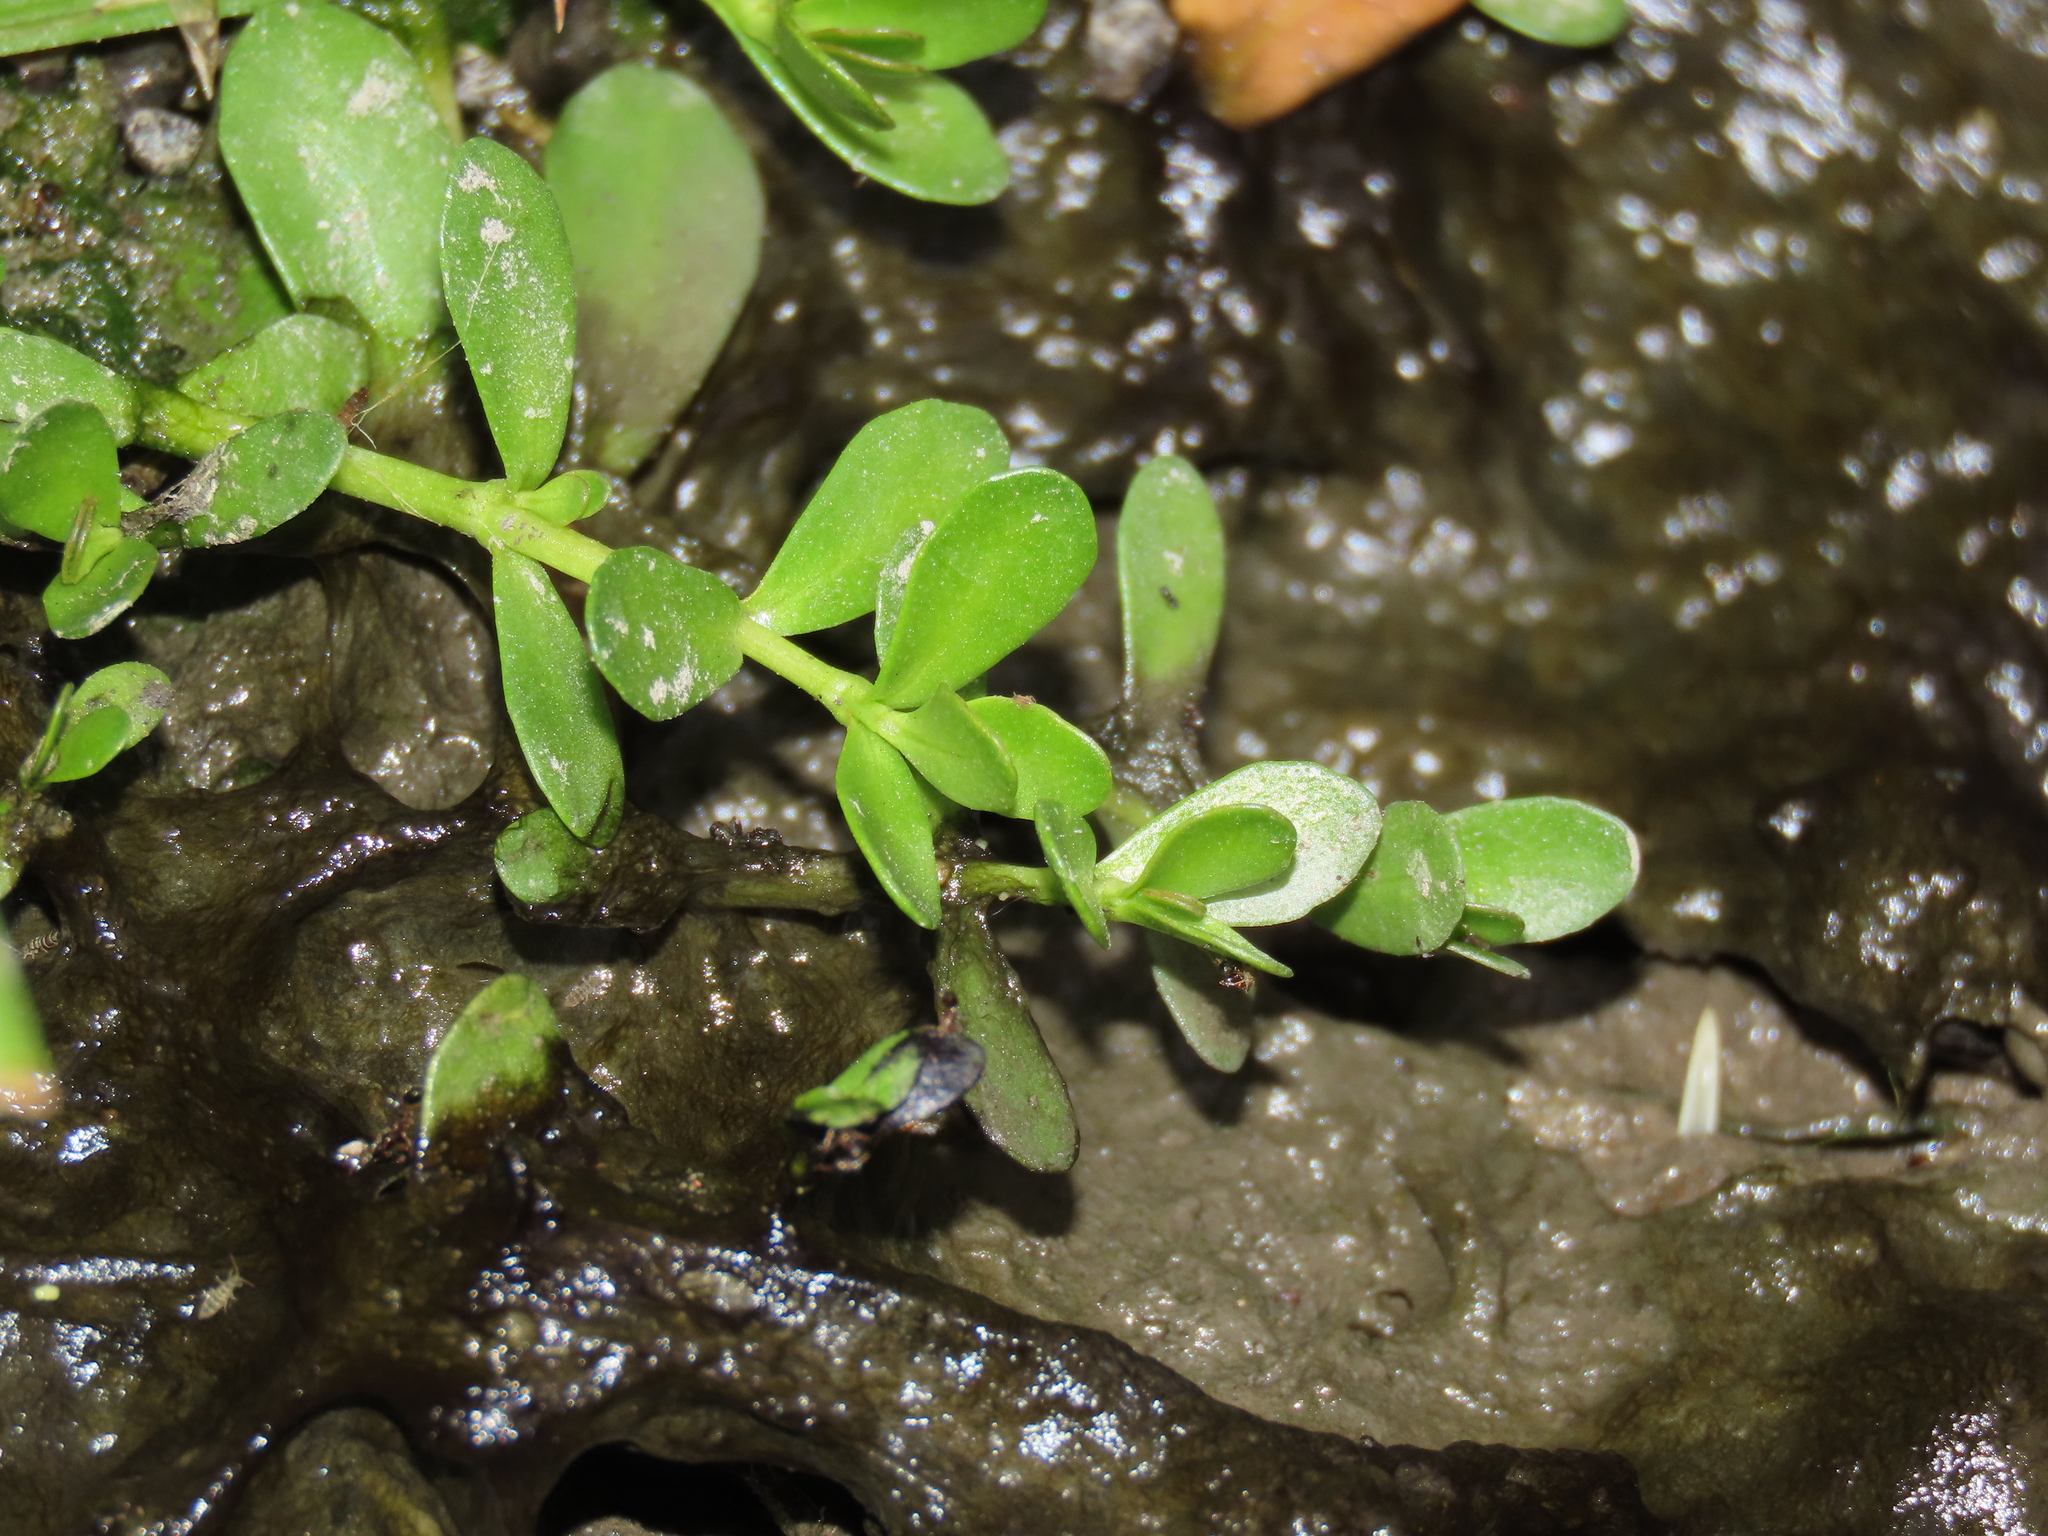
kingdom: Plantae
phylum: Tracheophyta
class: Magnoliopsida
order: Lamiales
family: Plantaginaceae
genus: Bacopa
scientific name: Bacopa monnieri
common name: Indian-pennywort
